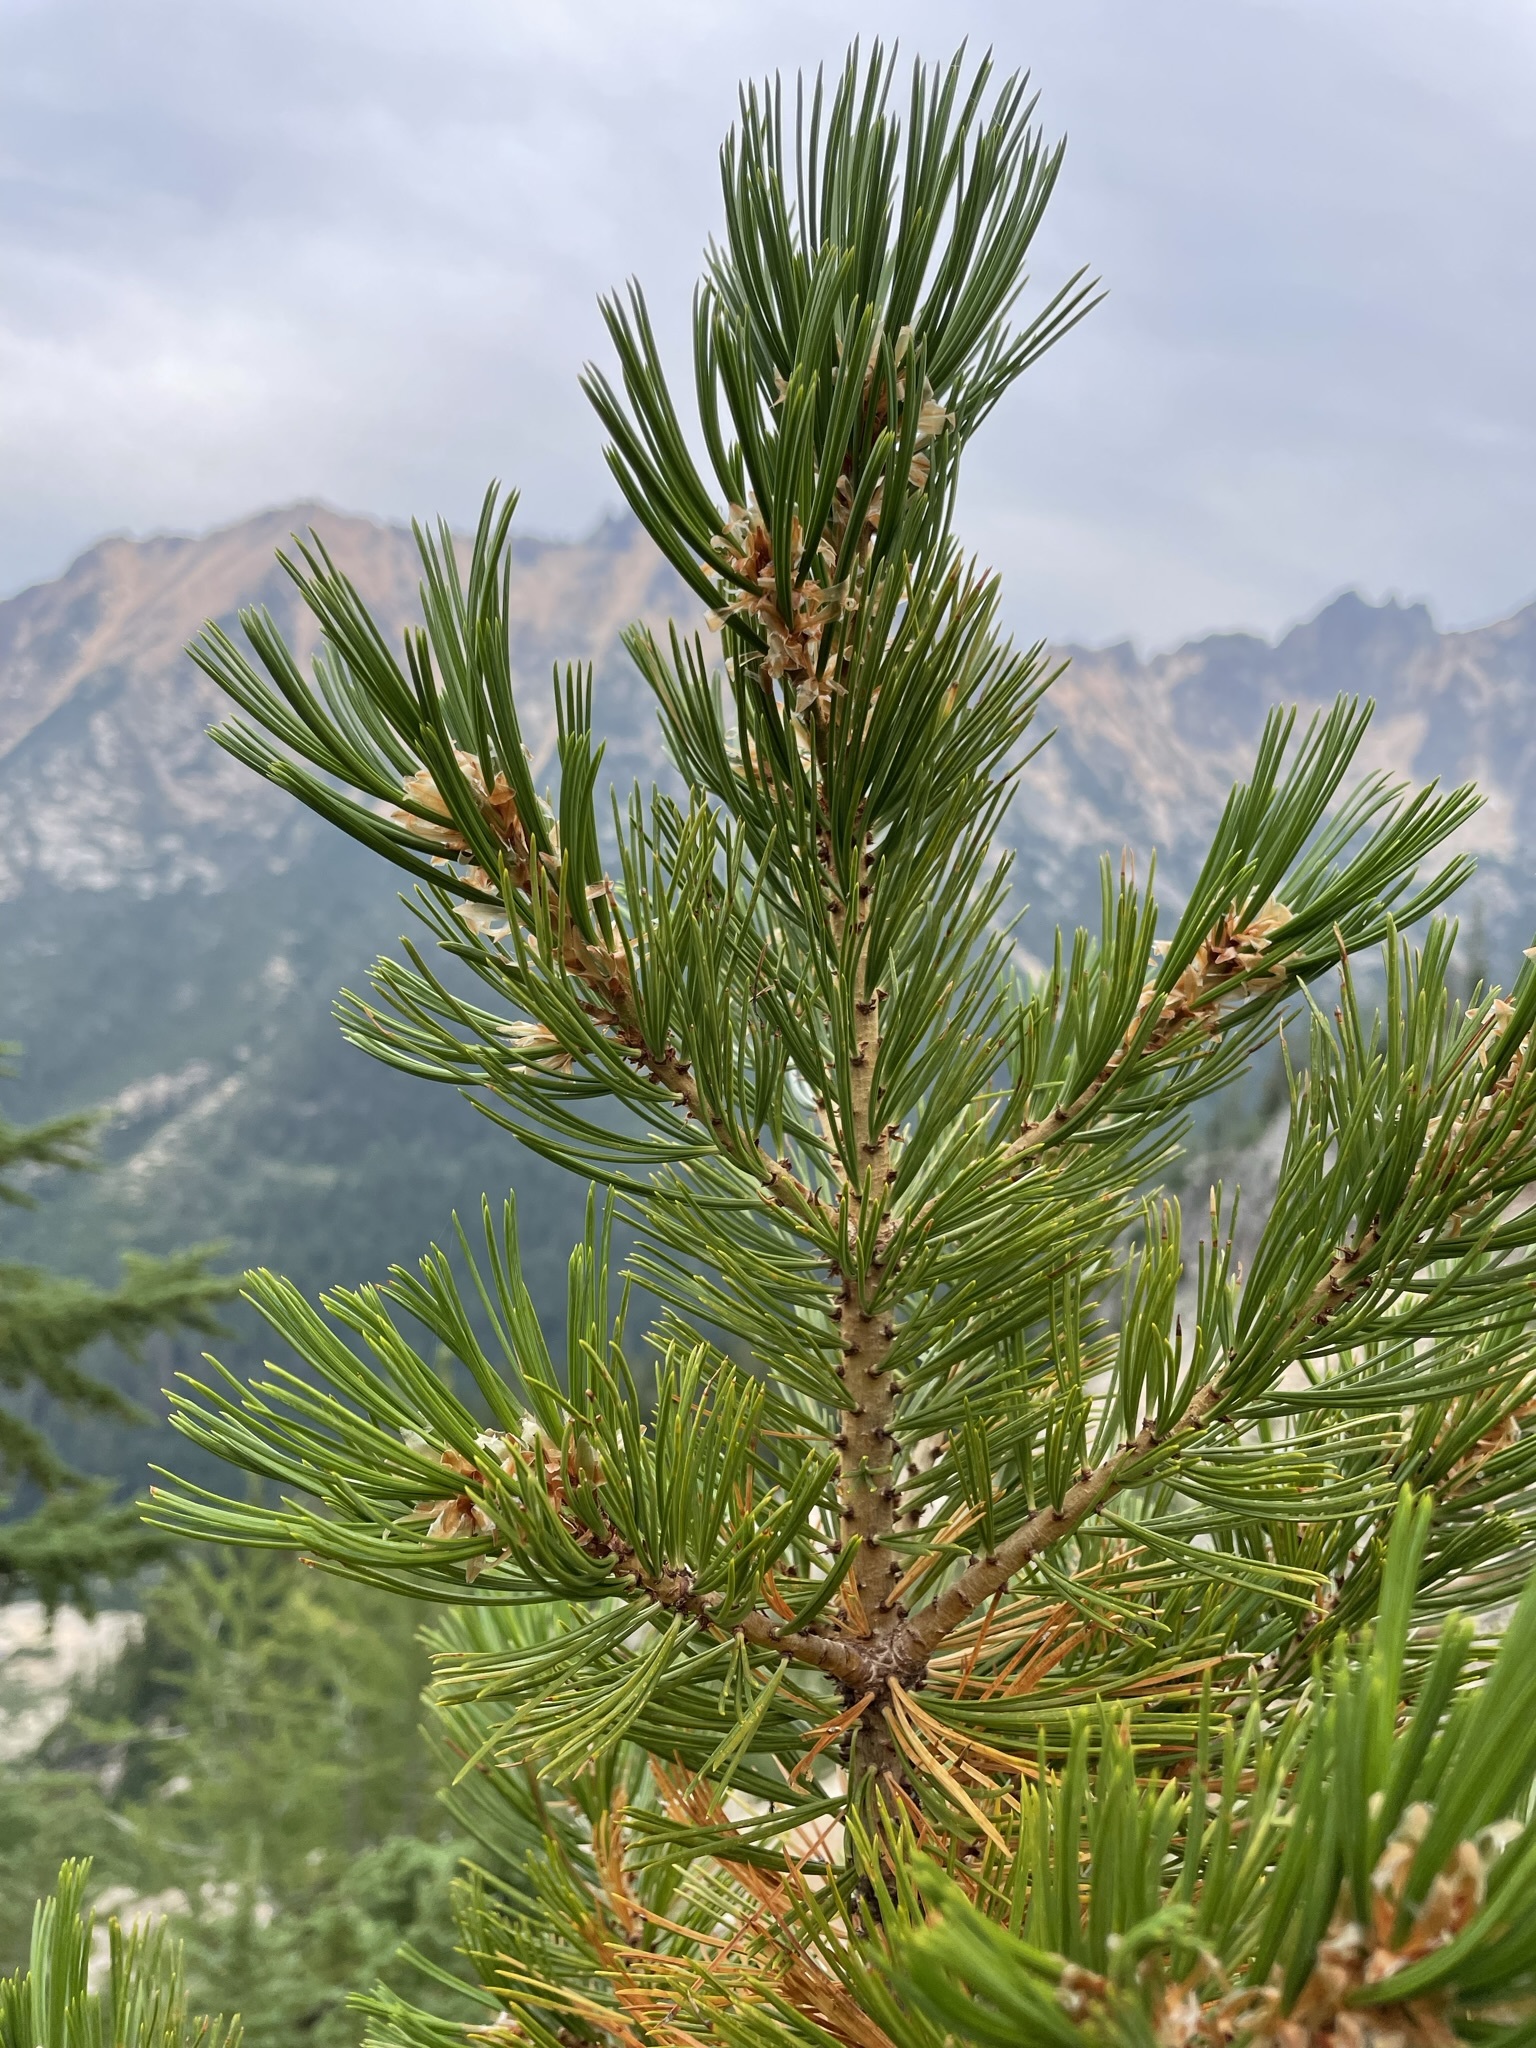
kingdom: Plantae
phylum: Tracheophyta
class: Pinopsida
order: Pinales
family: Pinaceae
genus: Pinus
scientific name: Pinus albicaulis
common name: Whitebark pine
